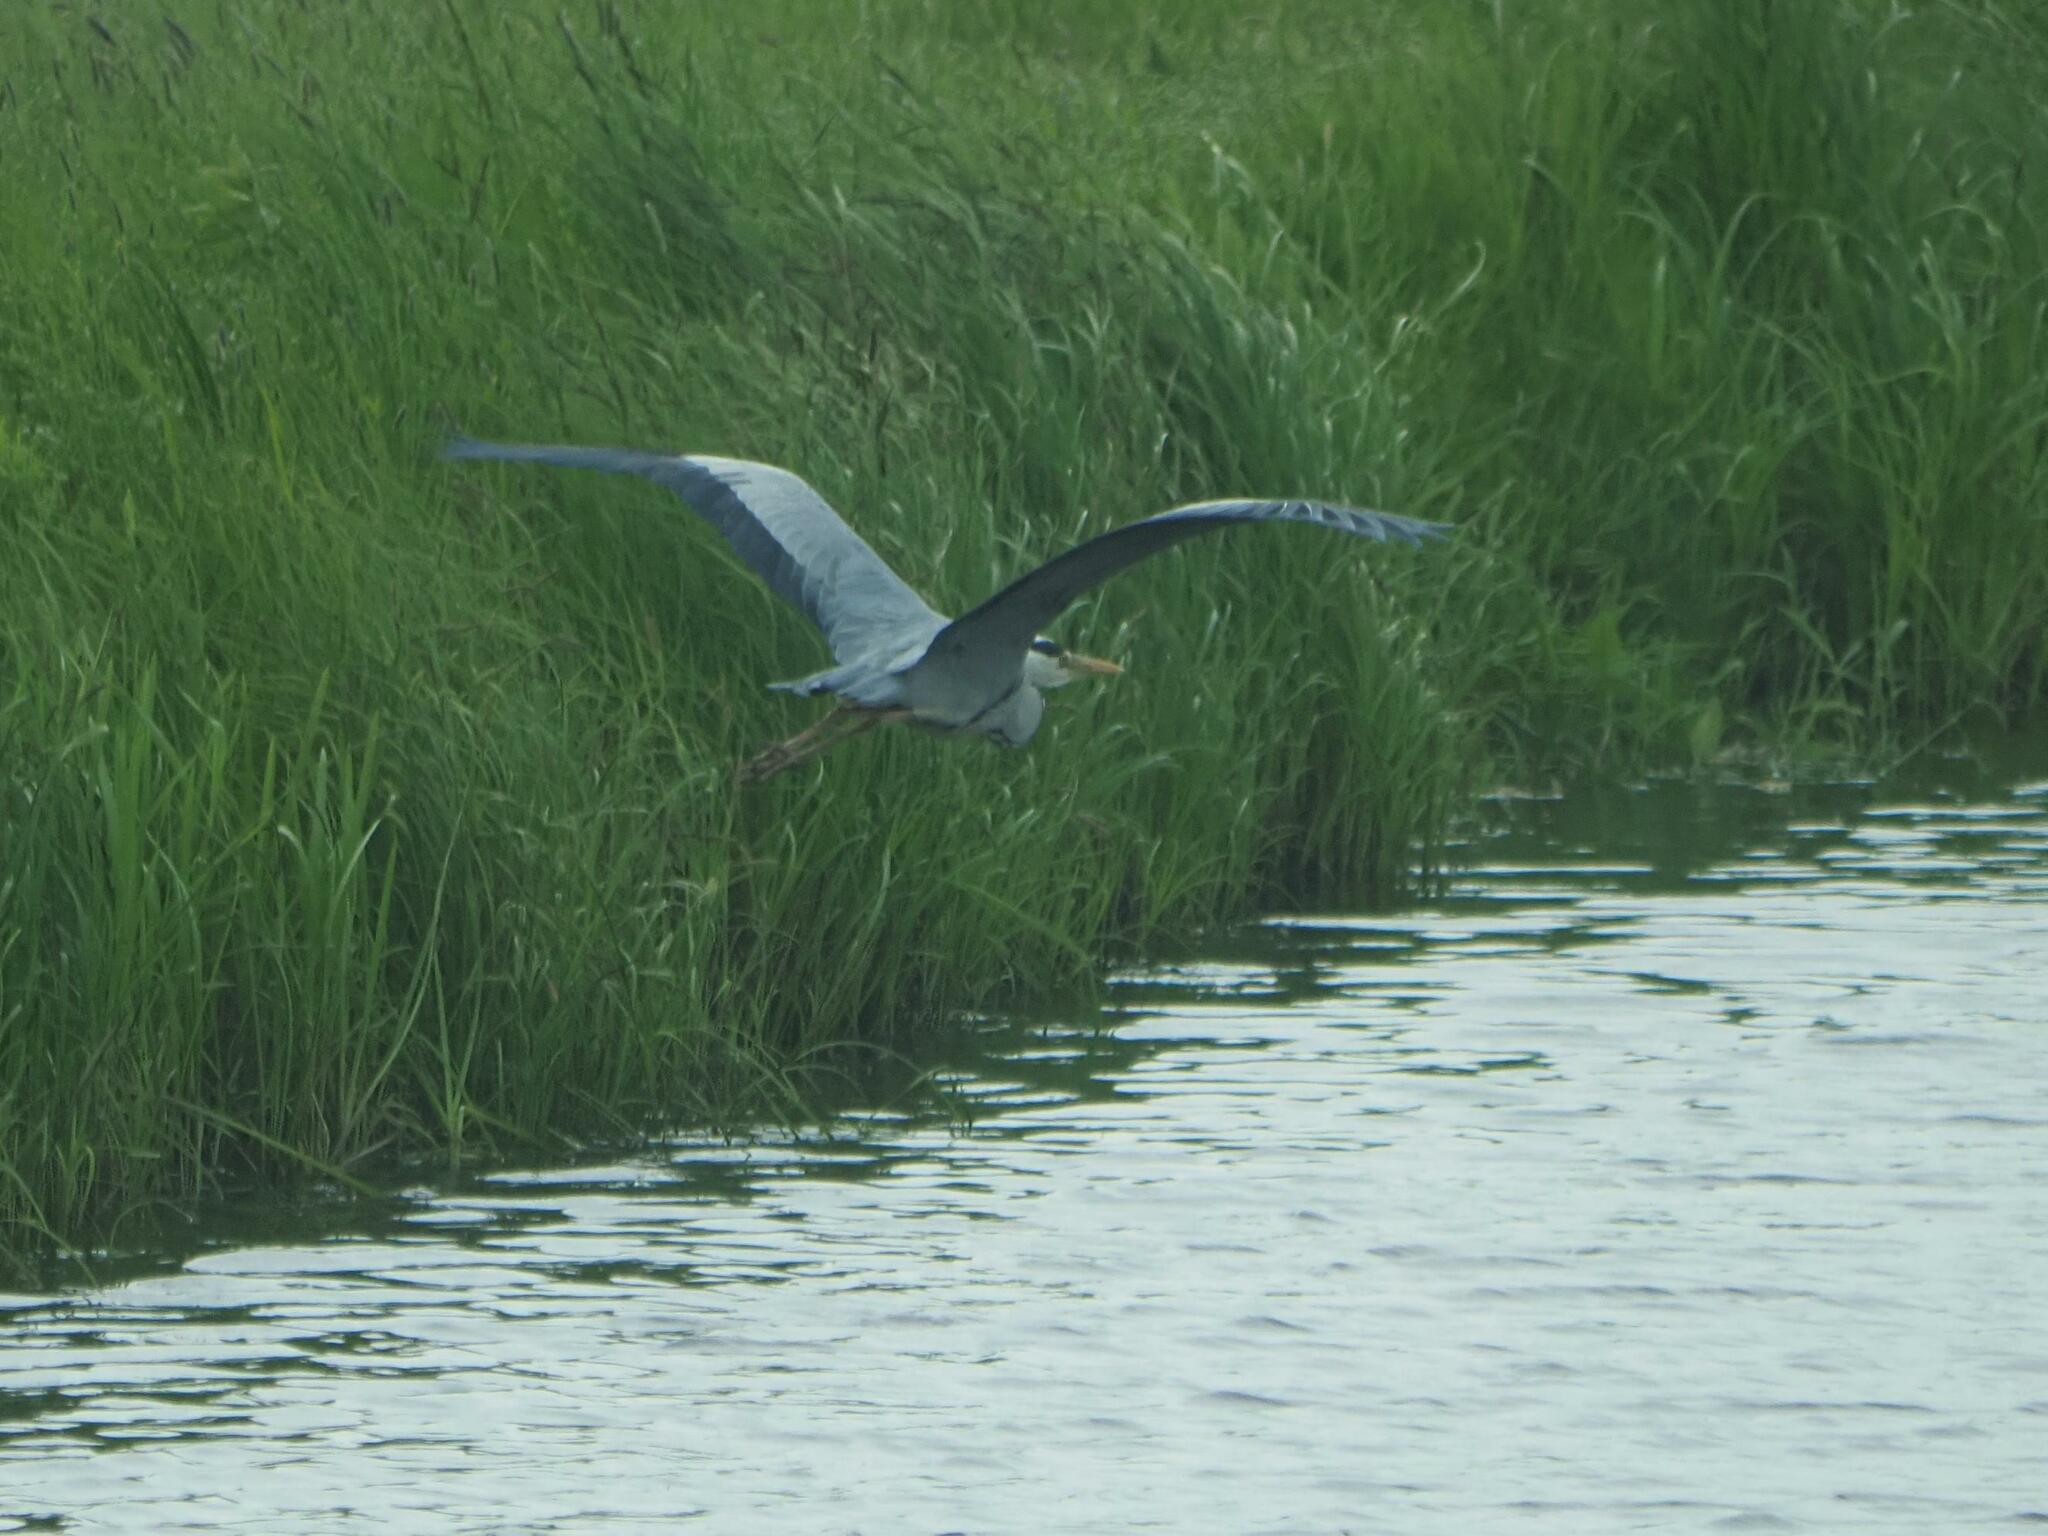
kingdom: Animalia
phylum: Chordata
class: Aves
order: Pelecaniformes
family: Ardeidae
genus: Ardea
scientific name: Ardea cinerea
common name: Grey heron
